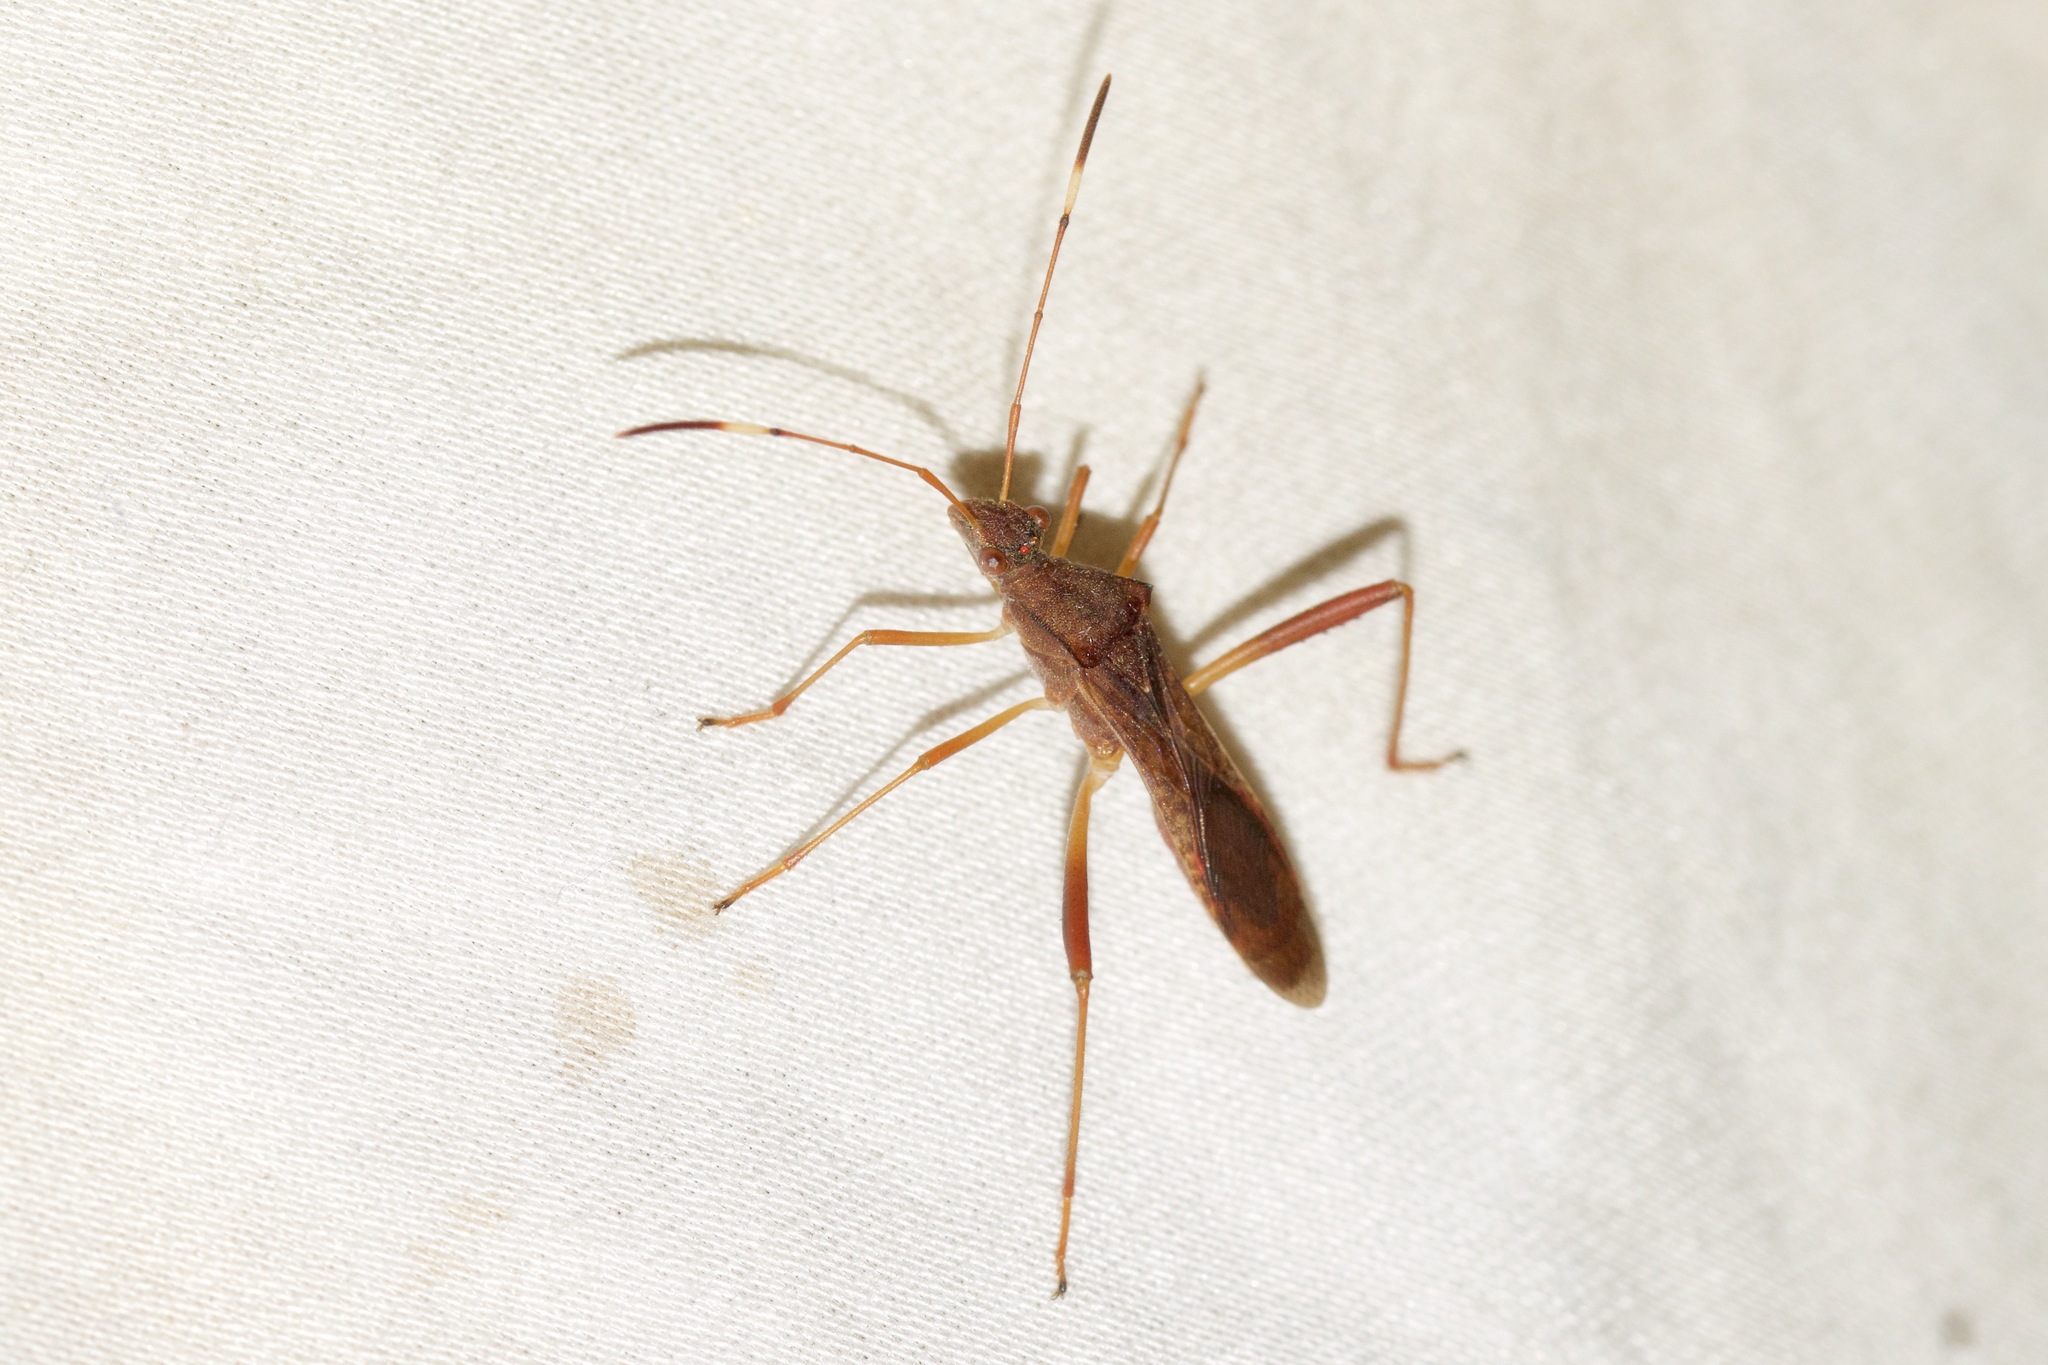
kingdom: Animalia
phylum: Arthropoda
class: Insecta
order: Hemiptera
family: Alydidae
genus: Megalotomus
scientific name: Megalotomus quinquespinosus
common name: Lupine bug
